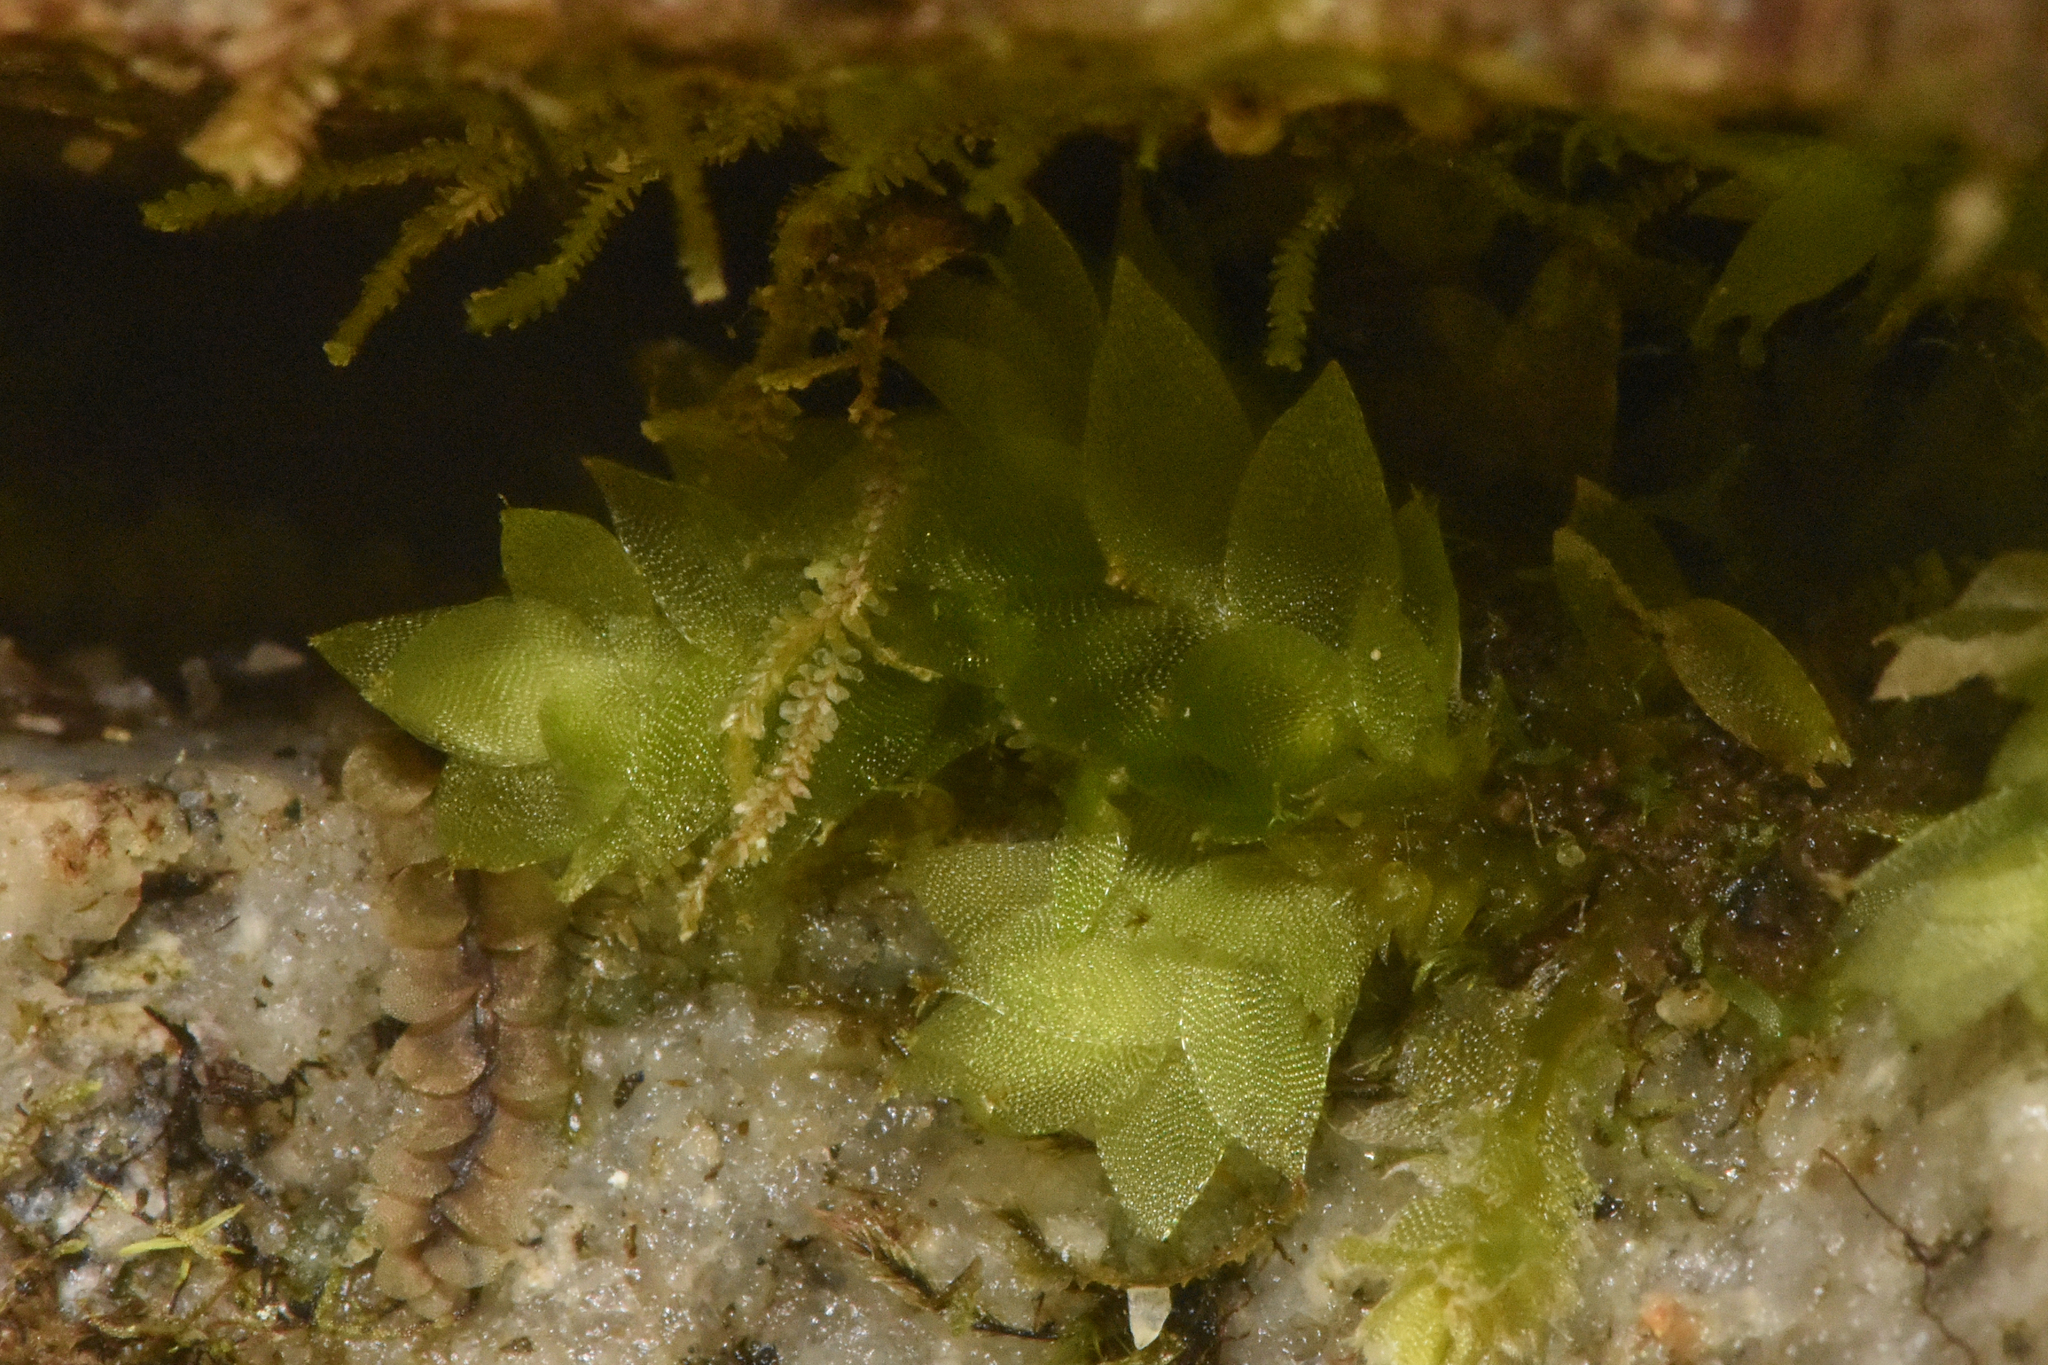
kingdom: Plantae
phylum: Bryophyta
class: Bryopsida
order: Hookeriales
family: Hookeriaceae
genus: Hookeria
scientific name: Hookeria acutifolia
